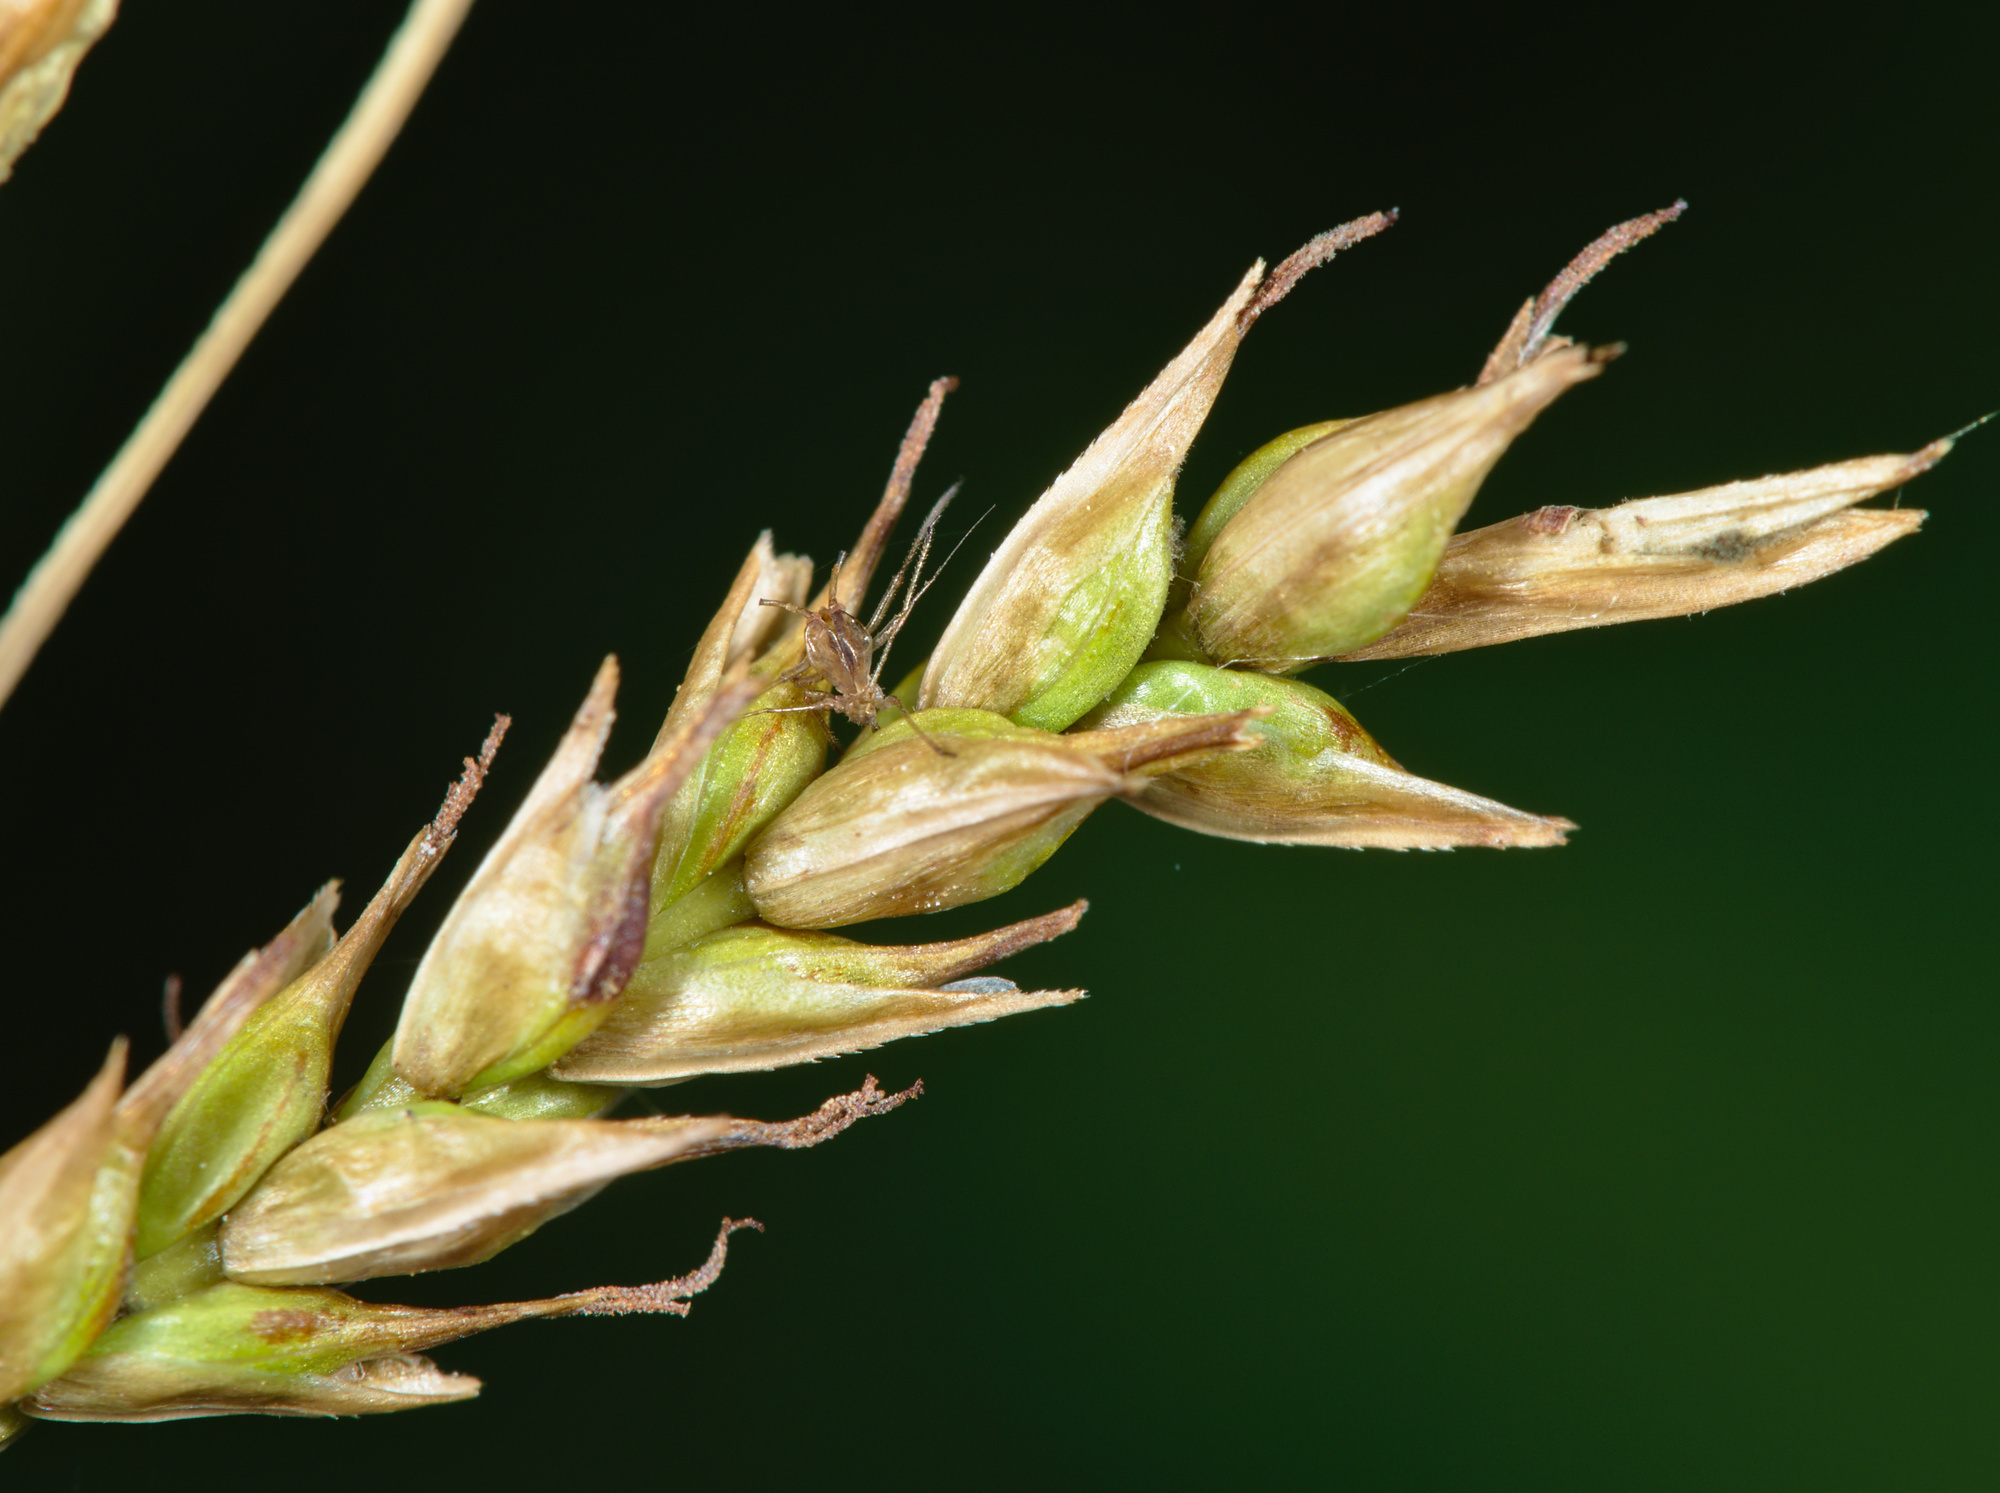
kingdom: Plantae
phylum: Tracheophyta
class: Liliopsida
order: Poales
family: Cyperaceae
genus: Carex
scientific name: Carex sylvatica
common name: Wood-sedge
